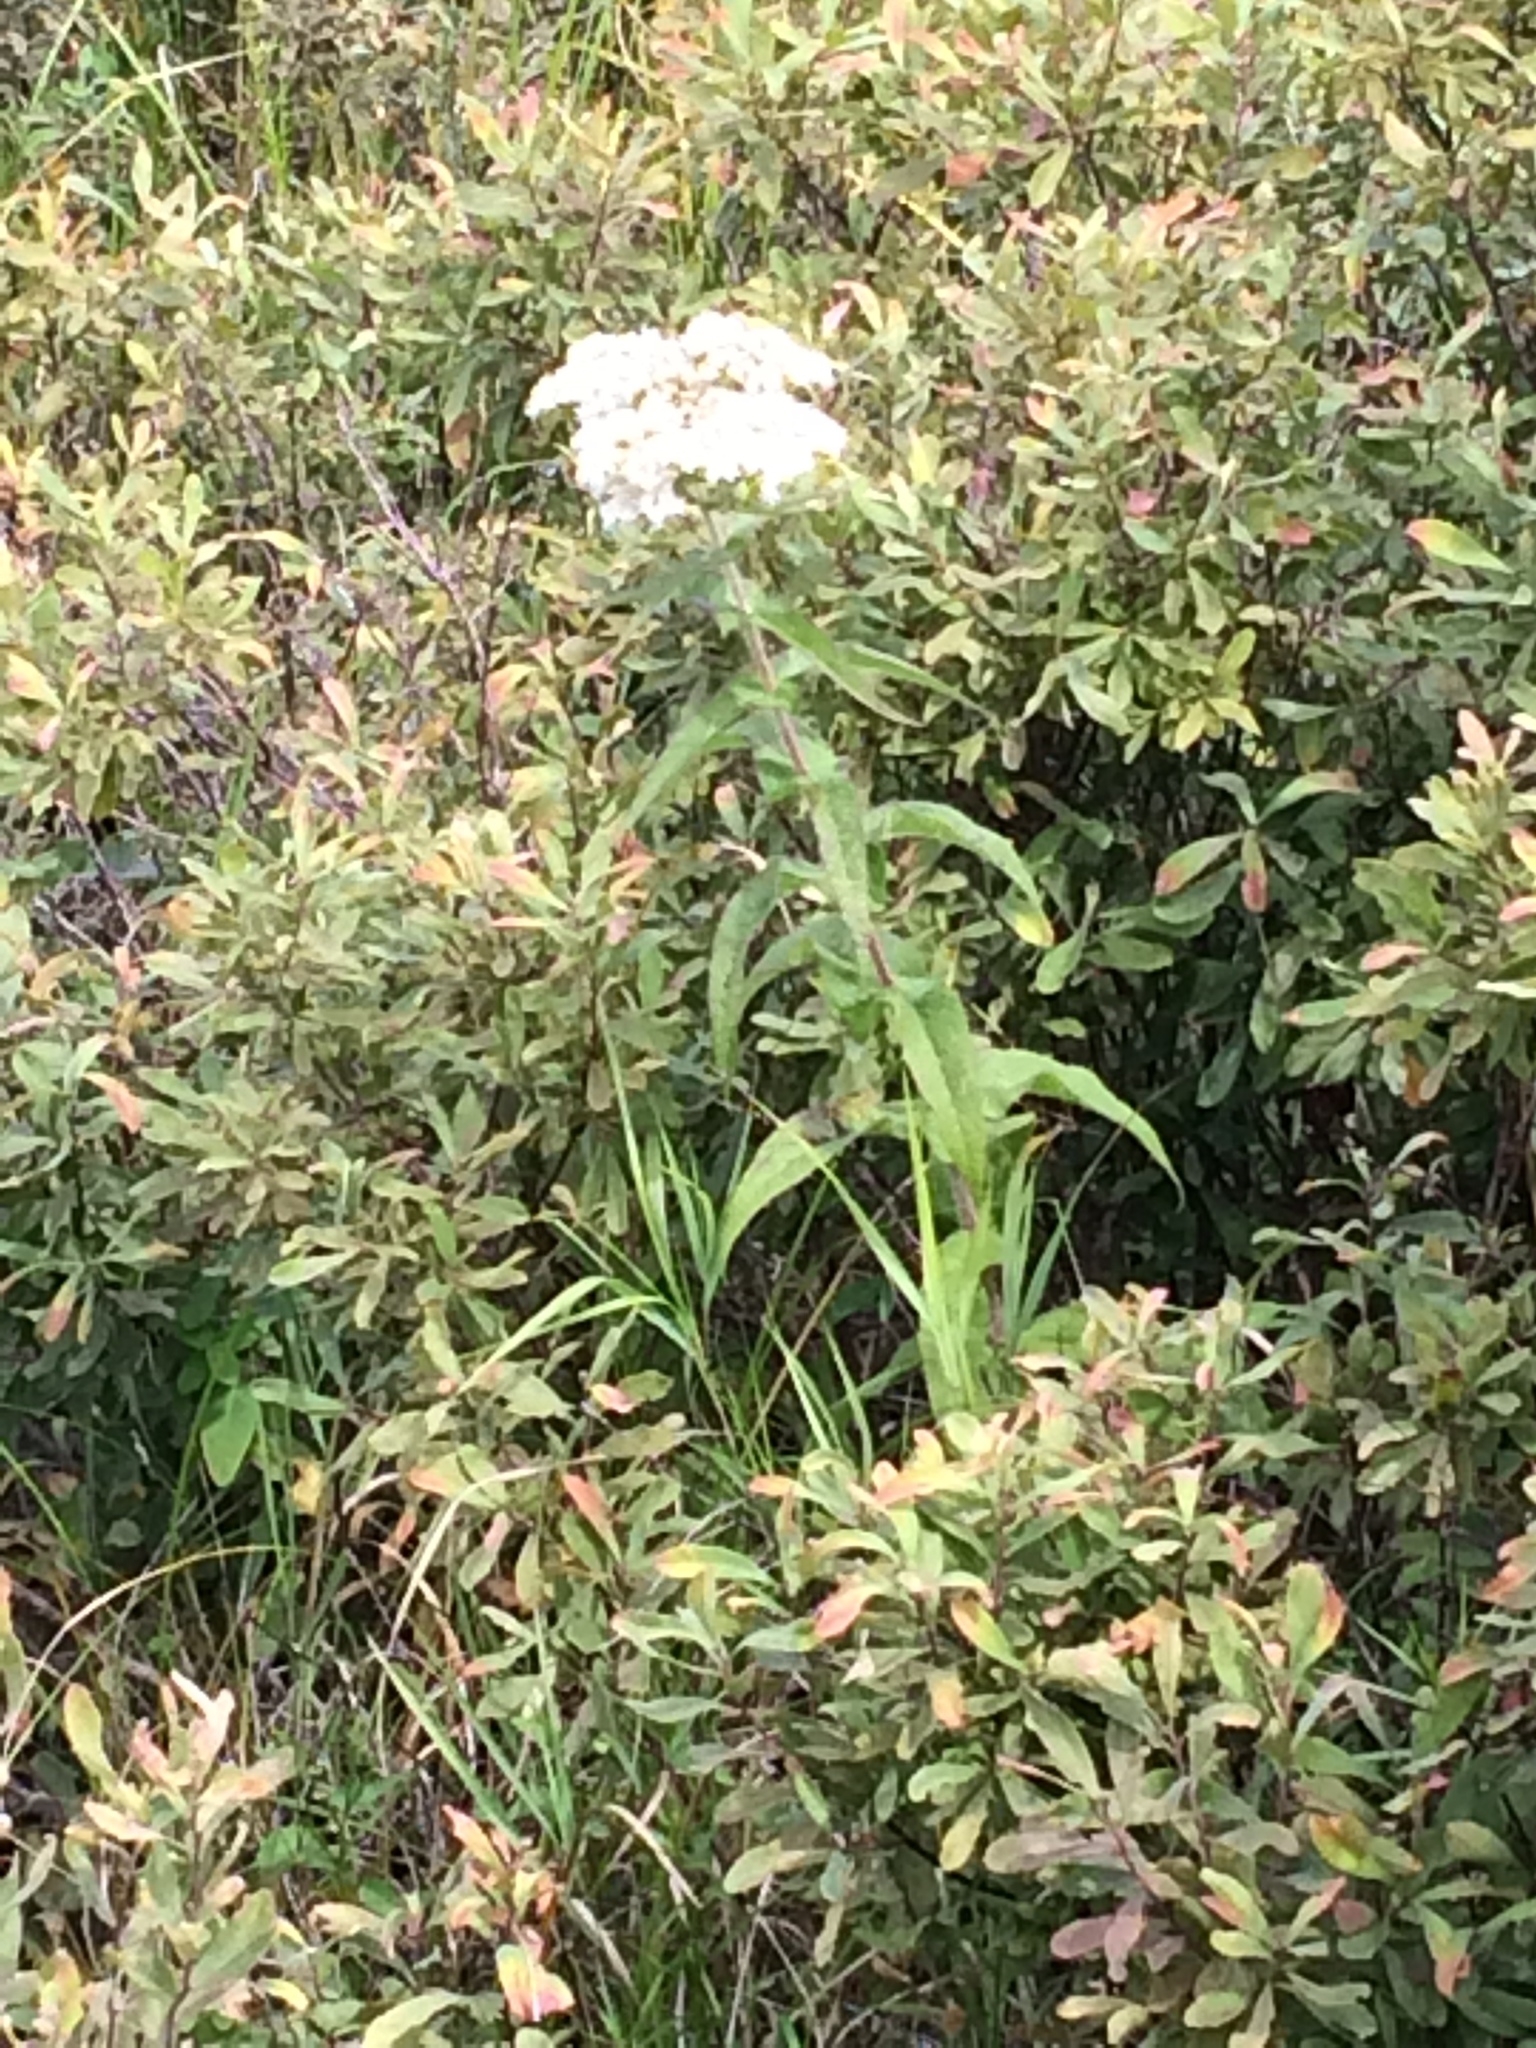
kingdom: Plantae
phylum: Tracheophyta
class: Magnoliopsida
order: Asterales
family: Asteraceae
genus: Eupatorium
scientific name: Eupatorium perfoliatum
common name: Boneset
